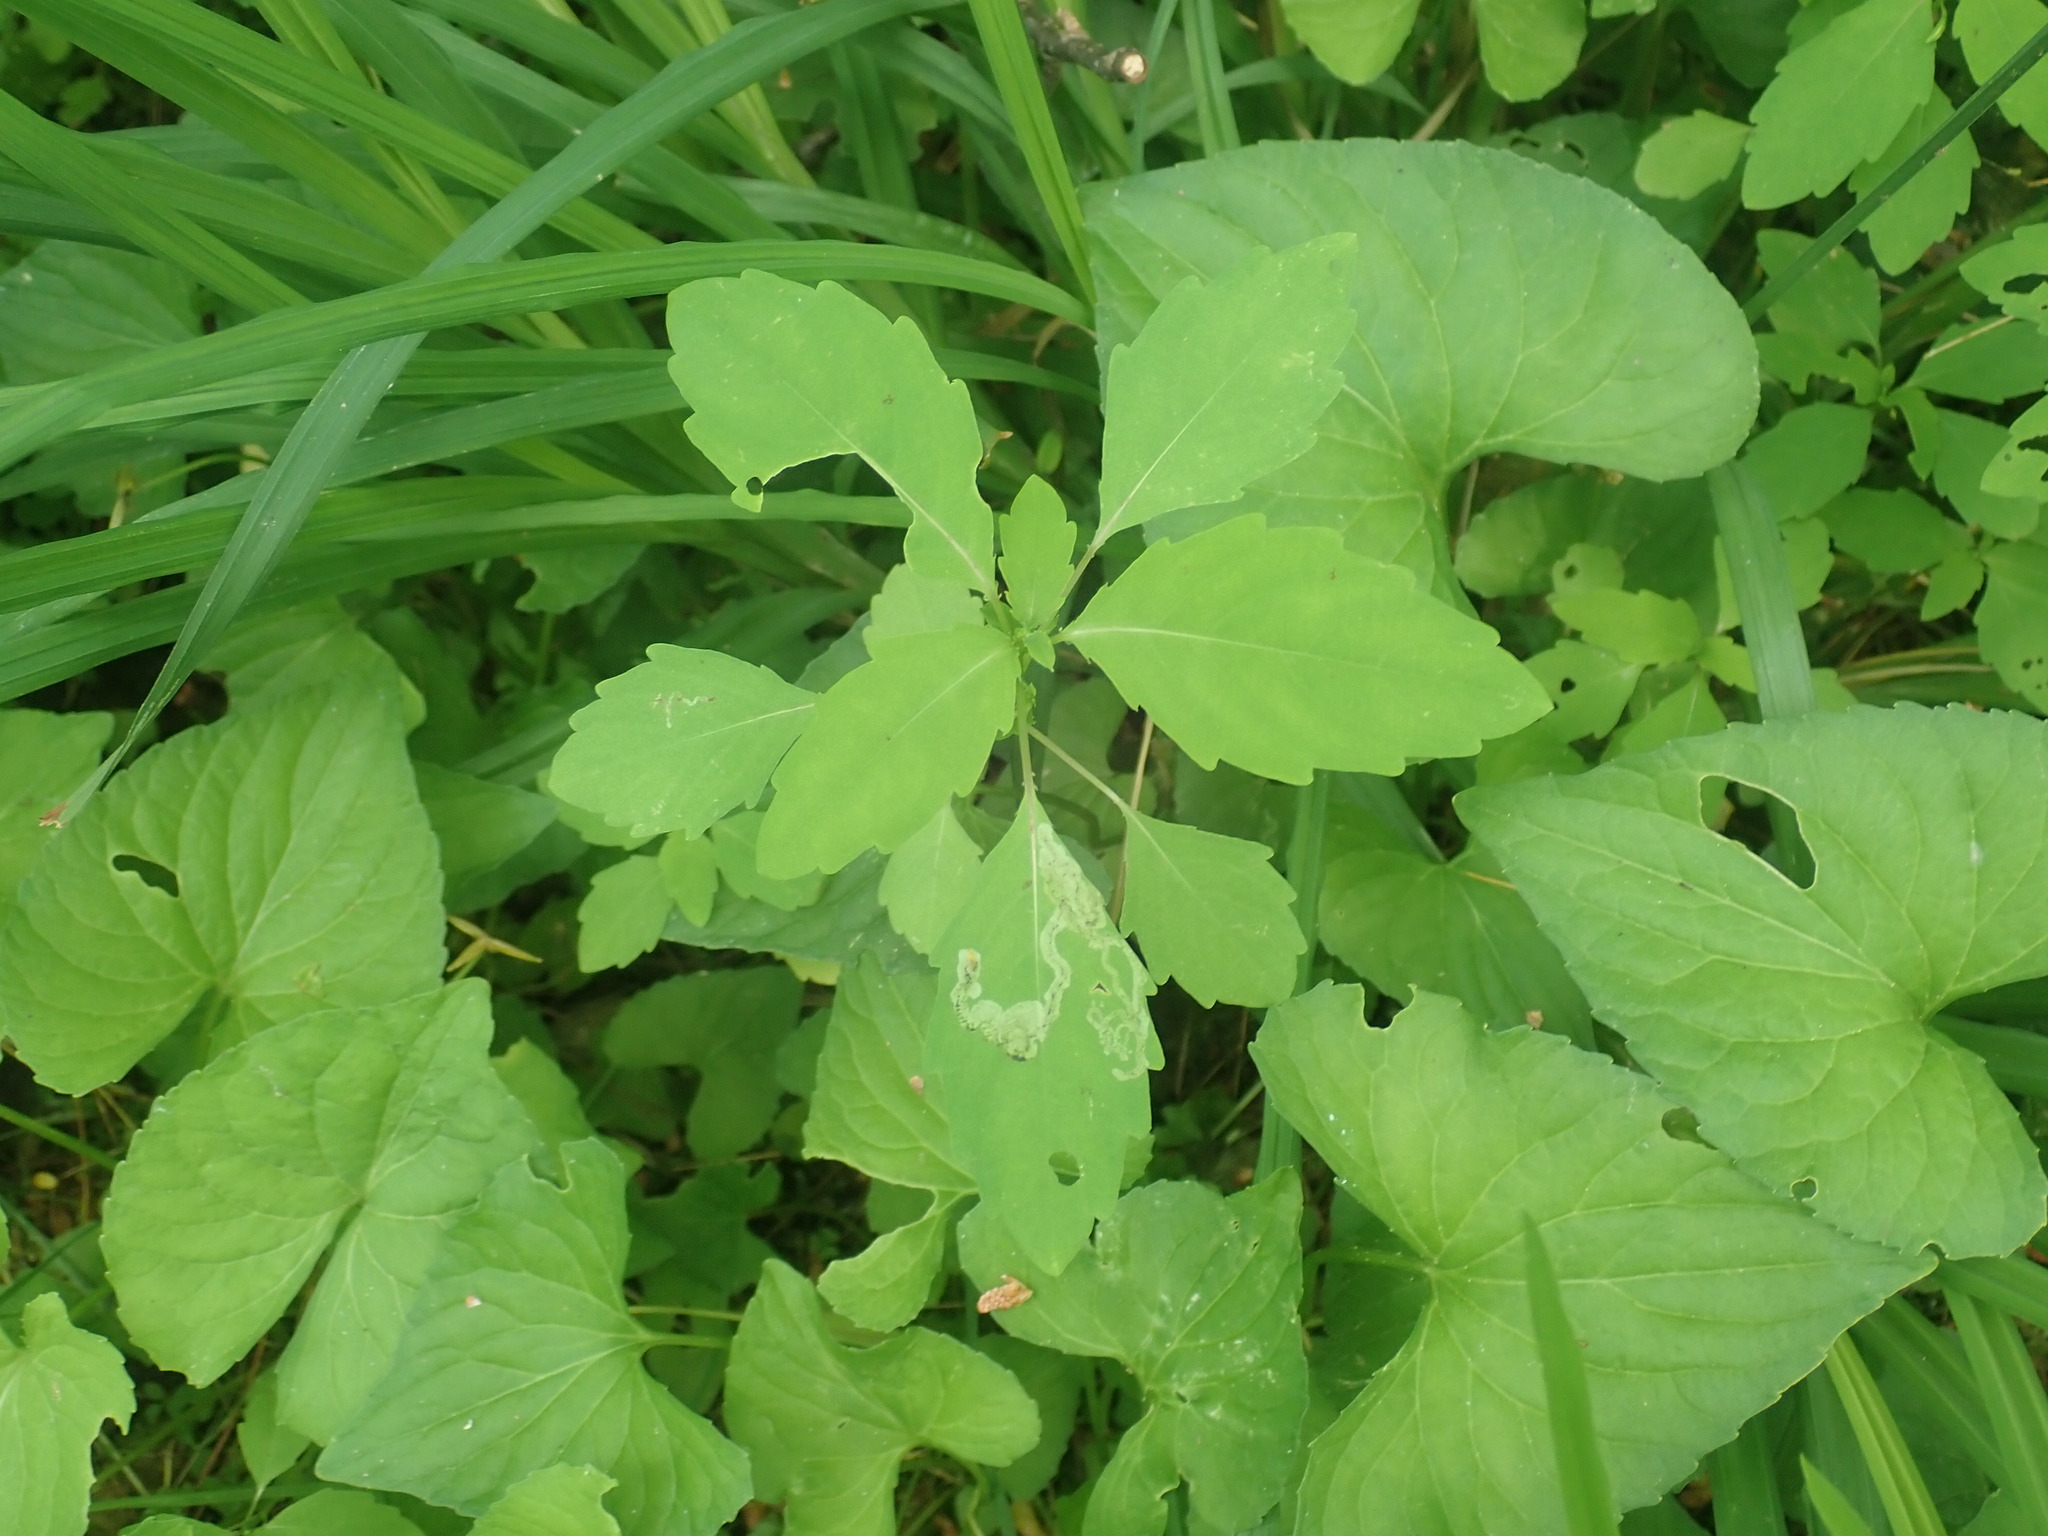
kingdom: Plantae
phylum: Tracheophyta
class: Magnoliopsida
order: Ericales
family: Balsaminaceae
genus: Impatiens
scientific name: Impatiens
